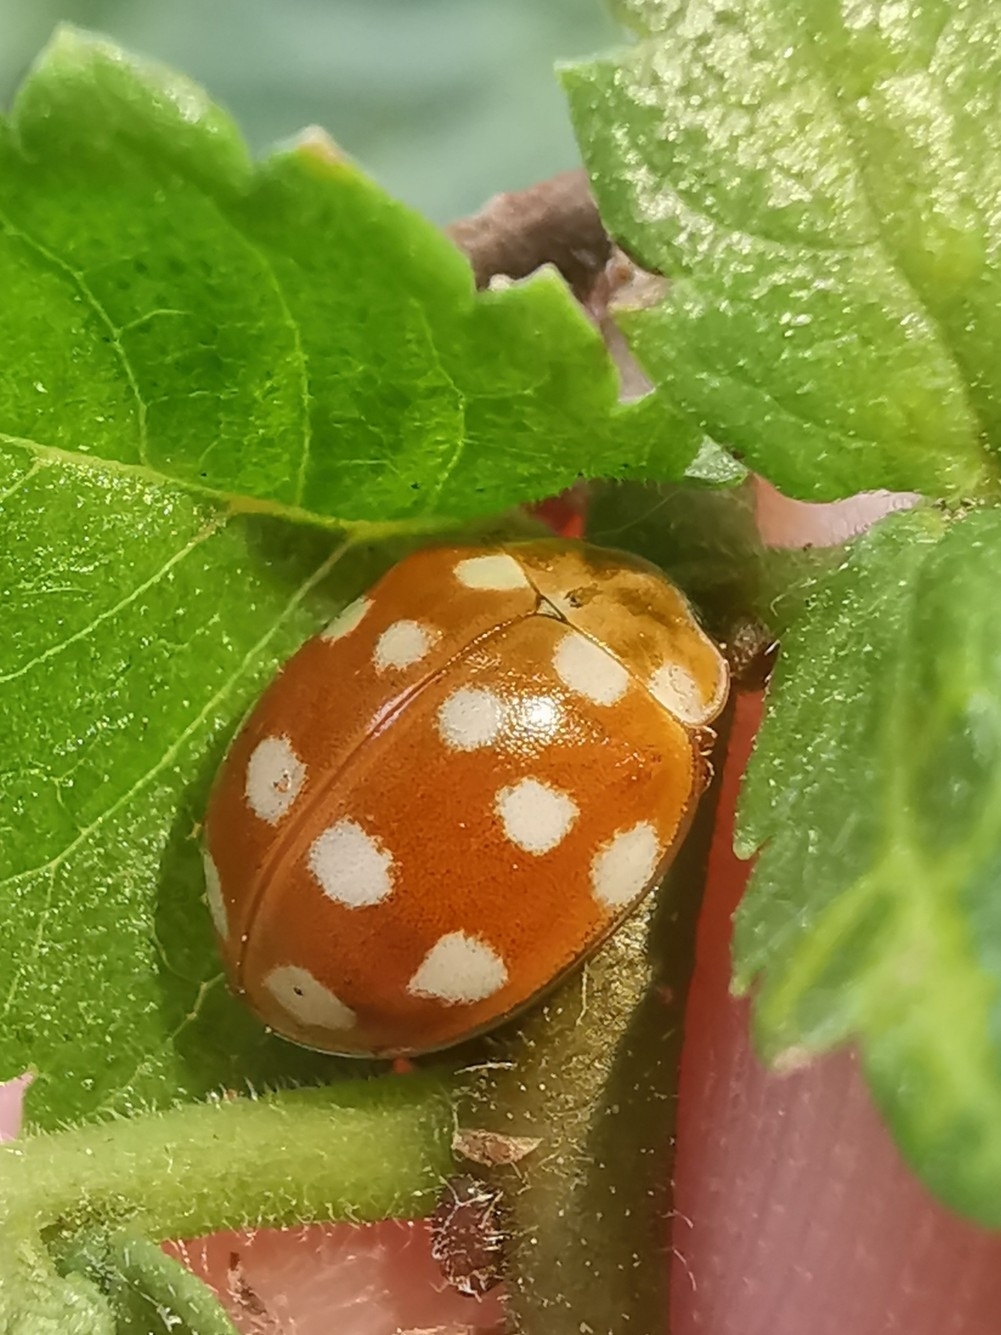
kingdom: Animalia
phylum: Arthropoda
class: Insecta
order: Coleoptera
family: Coccinellidae
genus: Calvia
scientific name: Calvia quatuordecimguttata
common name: Cream-spot ladybird
